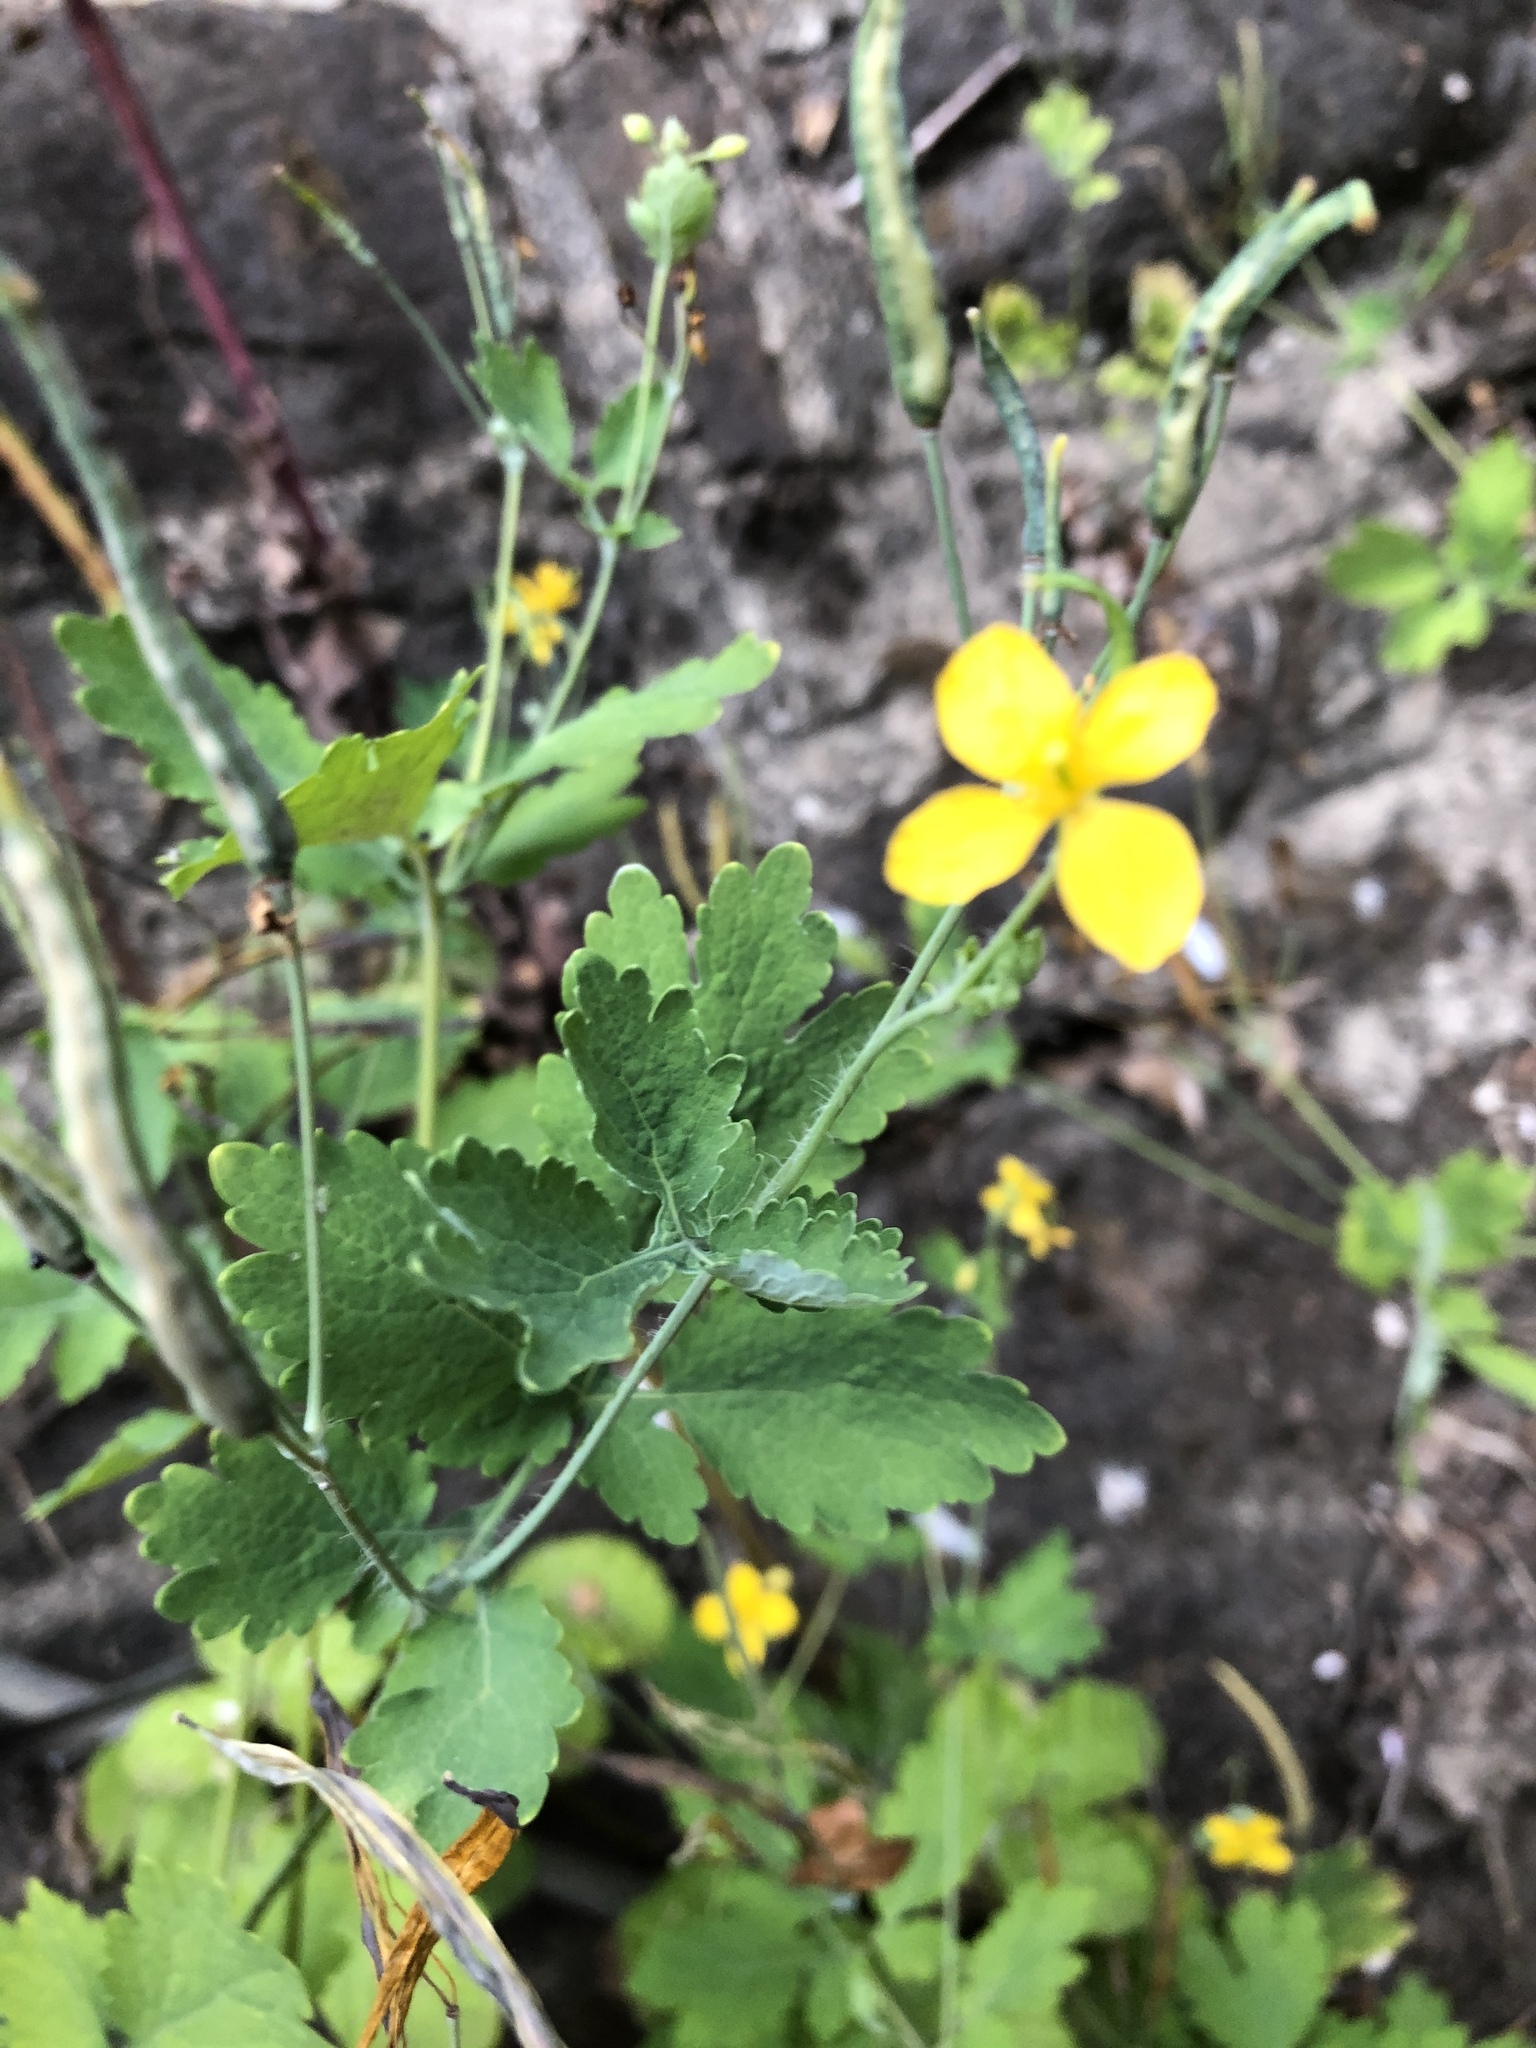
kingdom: Plantae
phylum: Tracheophyta
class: Magnoliopsida
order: Ranunculales
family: Papaveraceae
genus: Chelidonium
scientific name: Chelidonium majus
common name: Greater celandine
